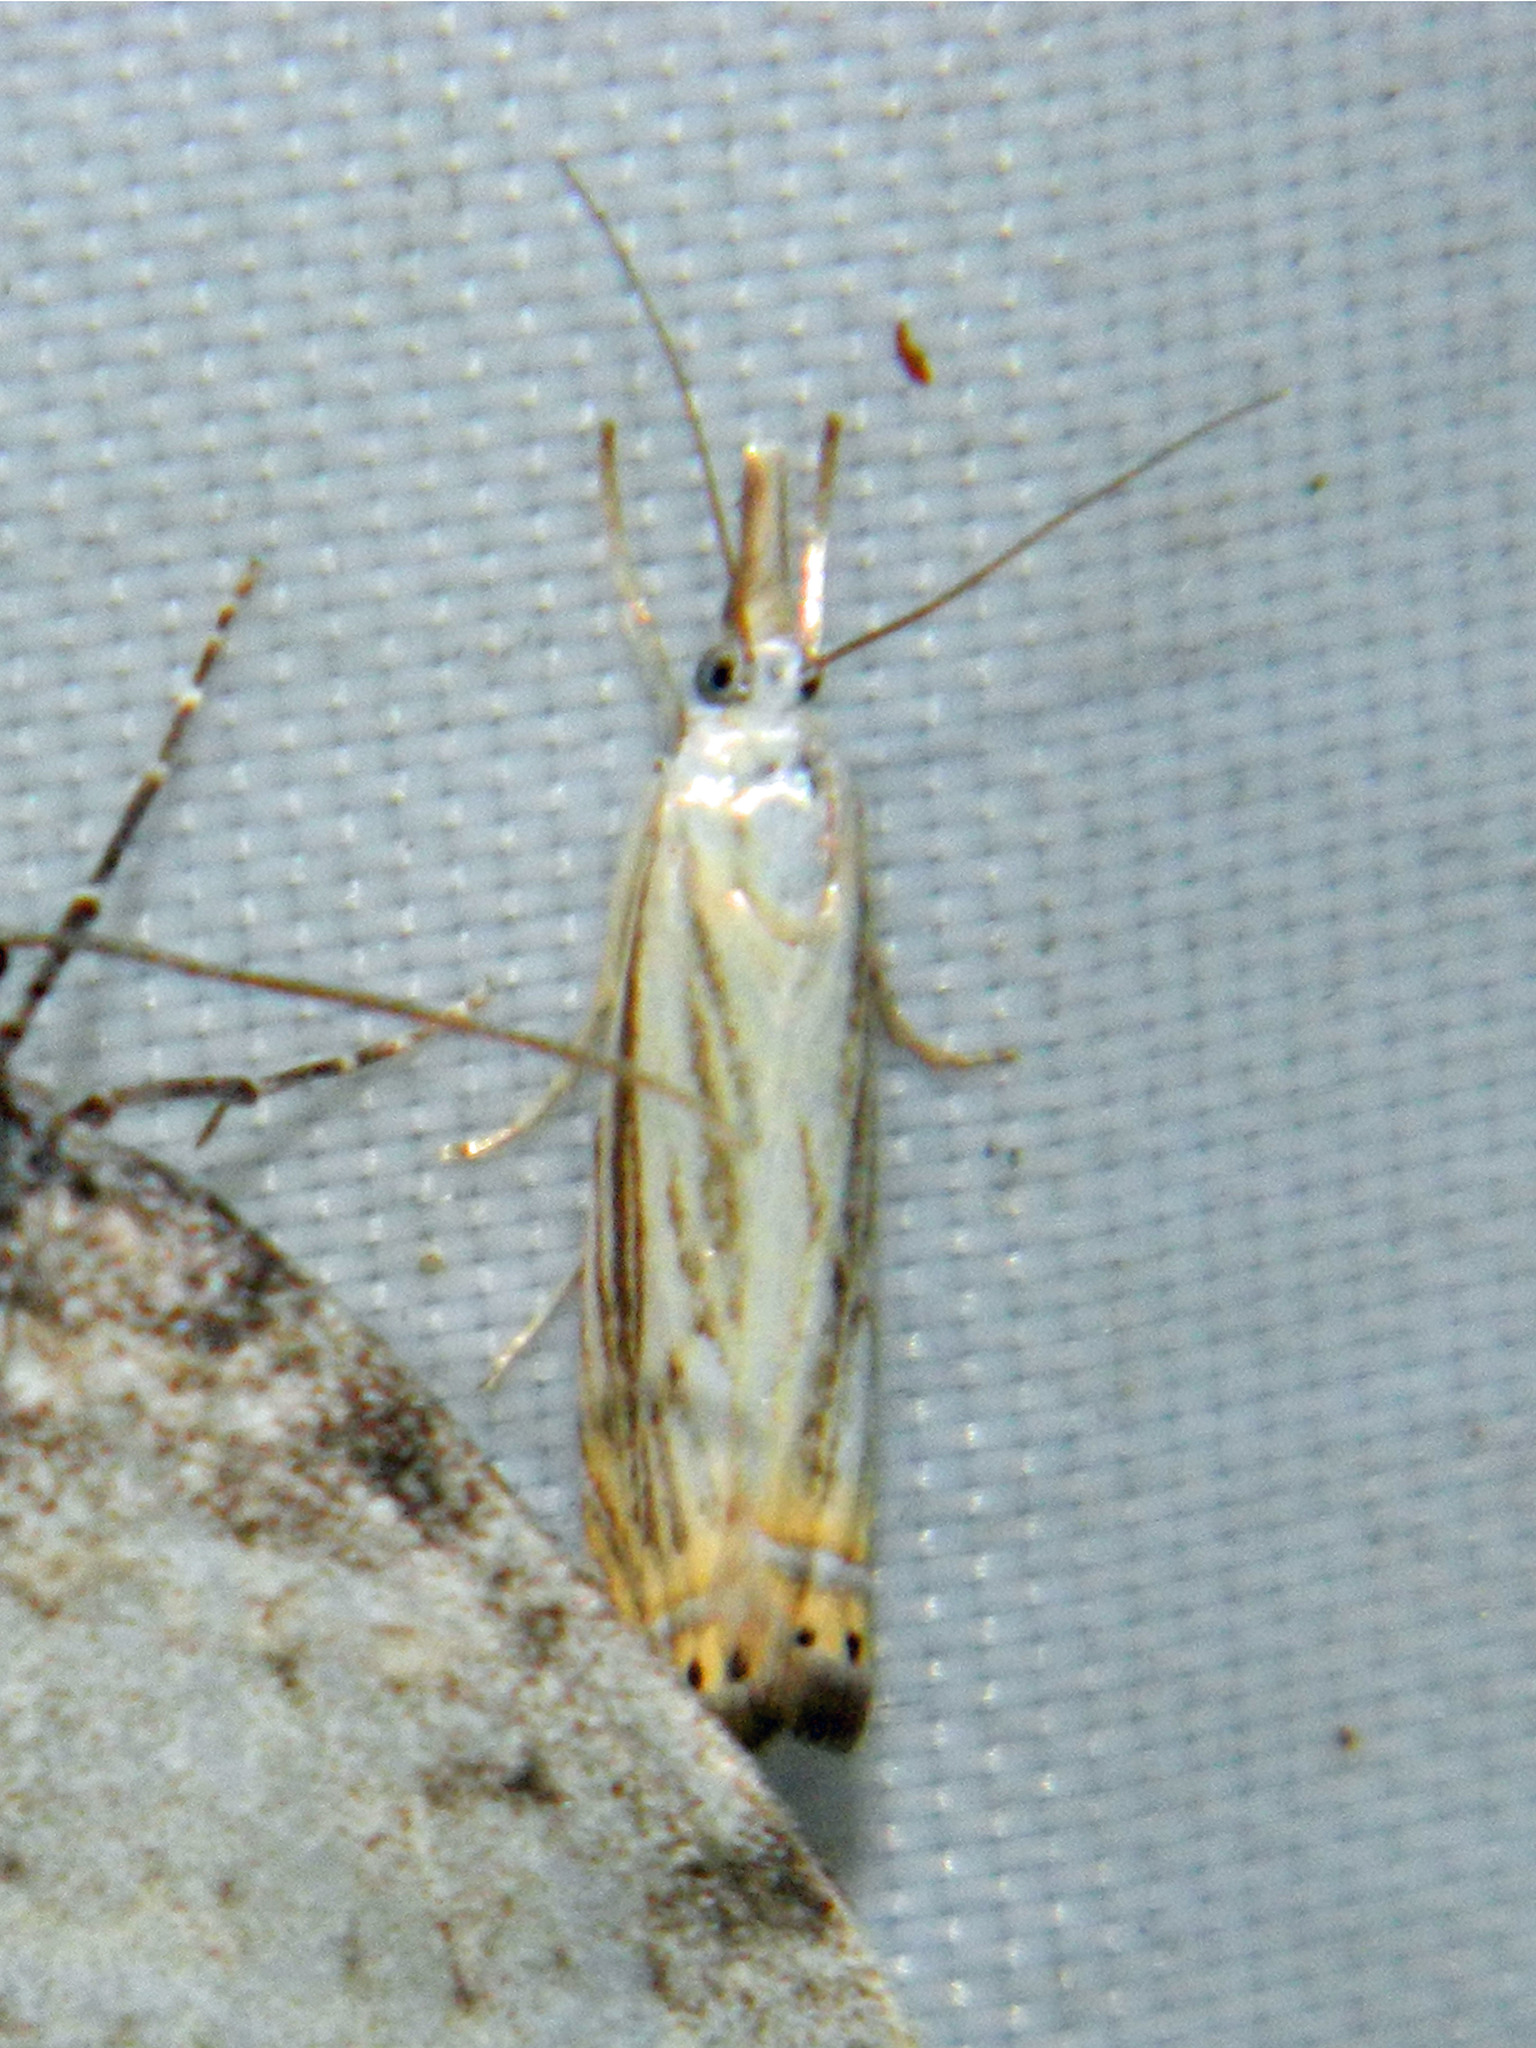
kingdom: Animalia
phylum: Arthropoda
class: Insecta
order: Lepidoptera
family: Crambidae
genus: Chrysoteuchia
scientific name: Chrysoteuchia topiarius
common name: Topiary grass-veneer
